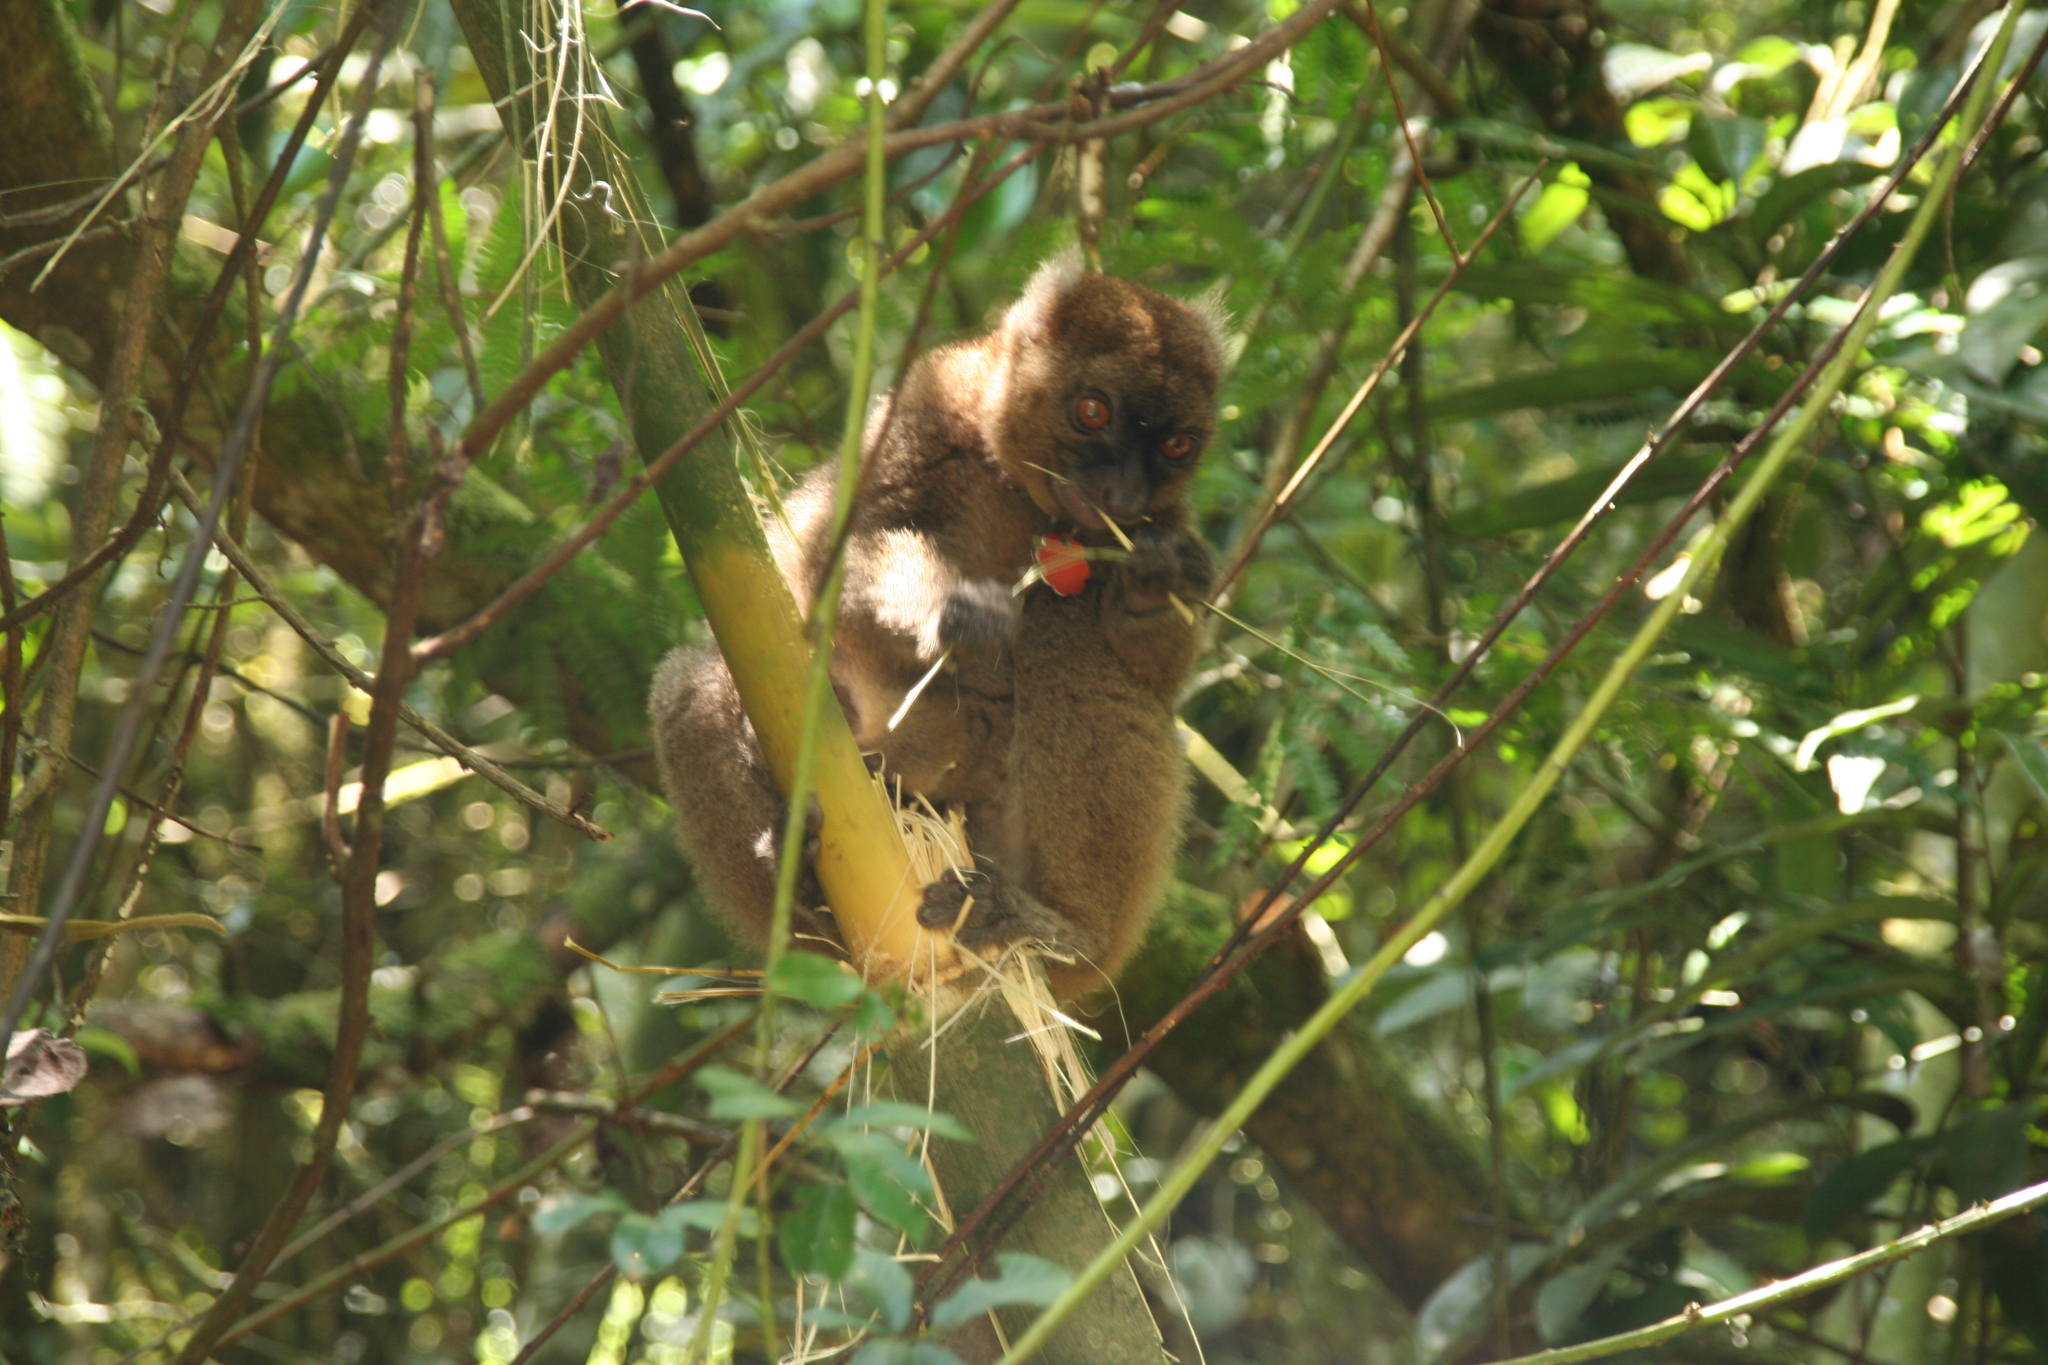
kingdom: Animalia
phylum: Chordata
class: Mammalia
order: Primates
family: Lemuridae
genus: Prolemur
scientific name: Prolemur simus
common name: Greater bamboo lemur
